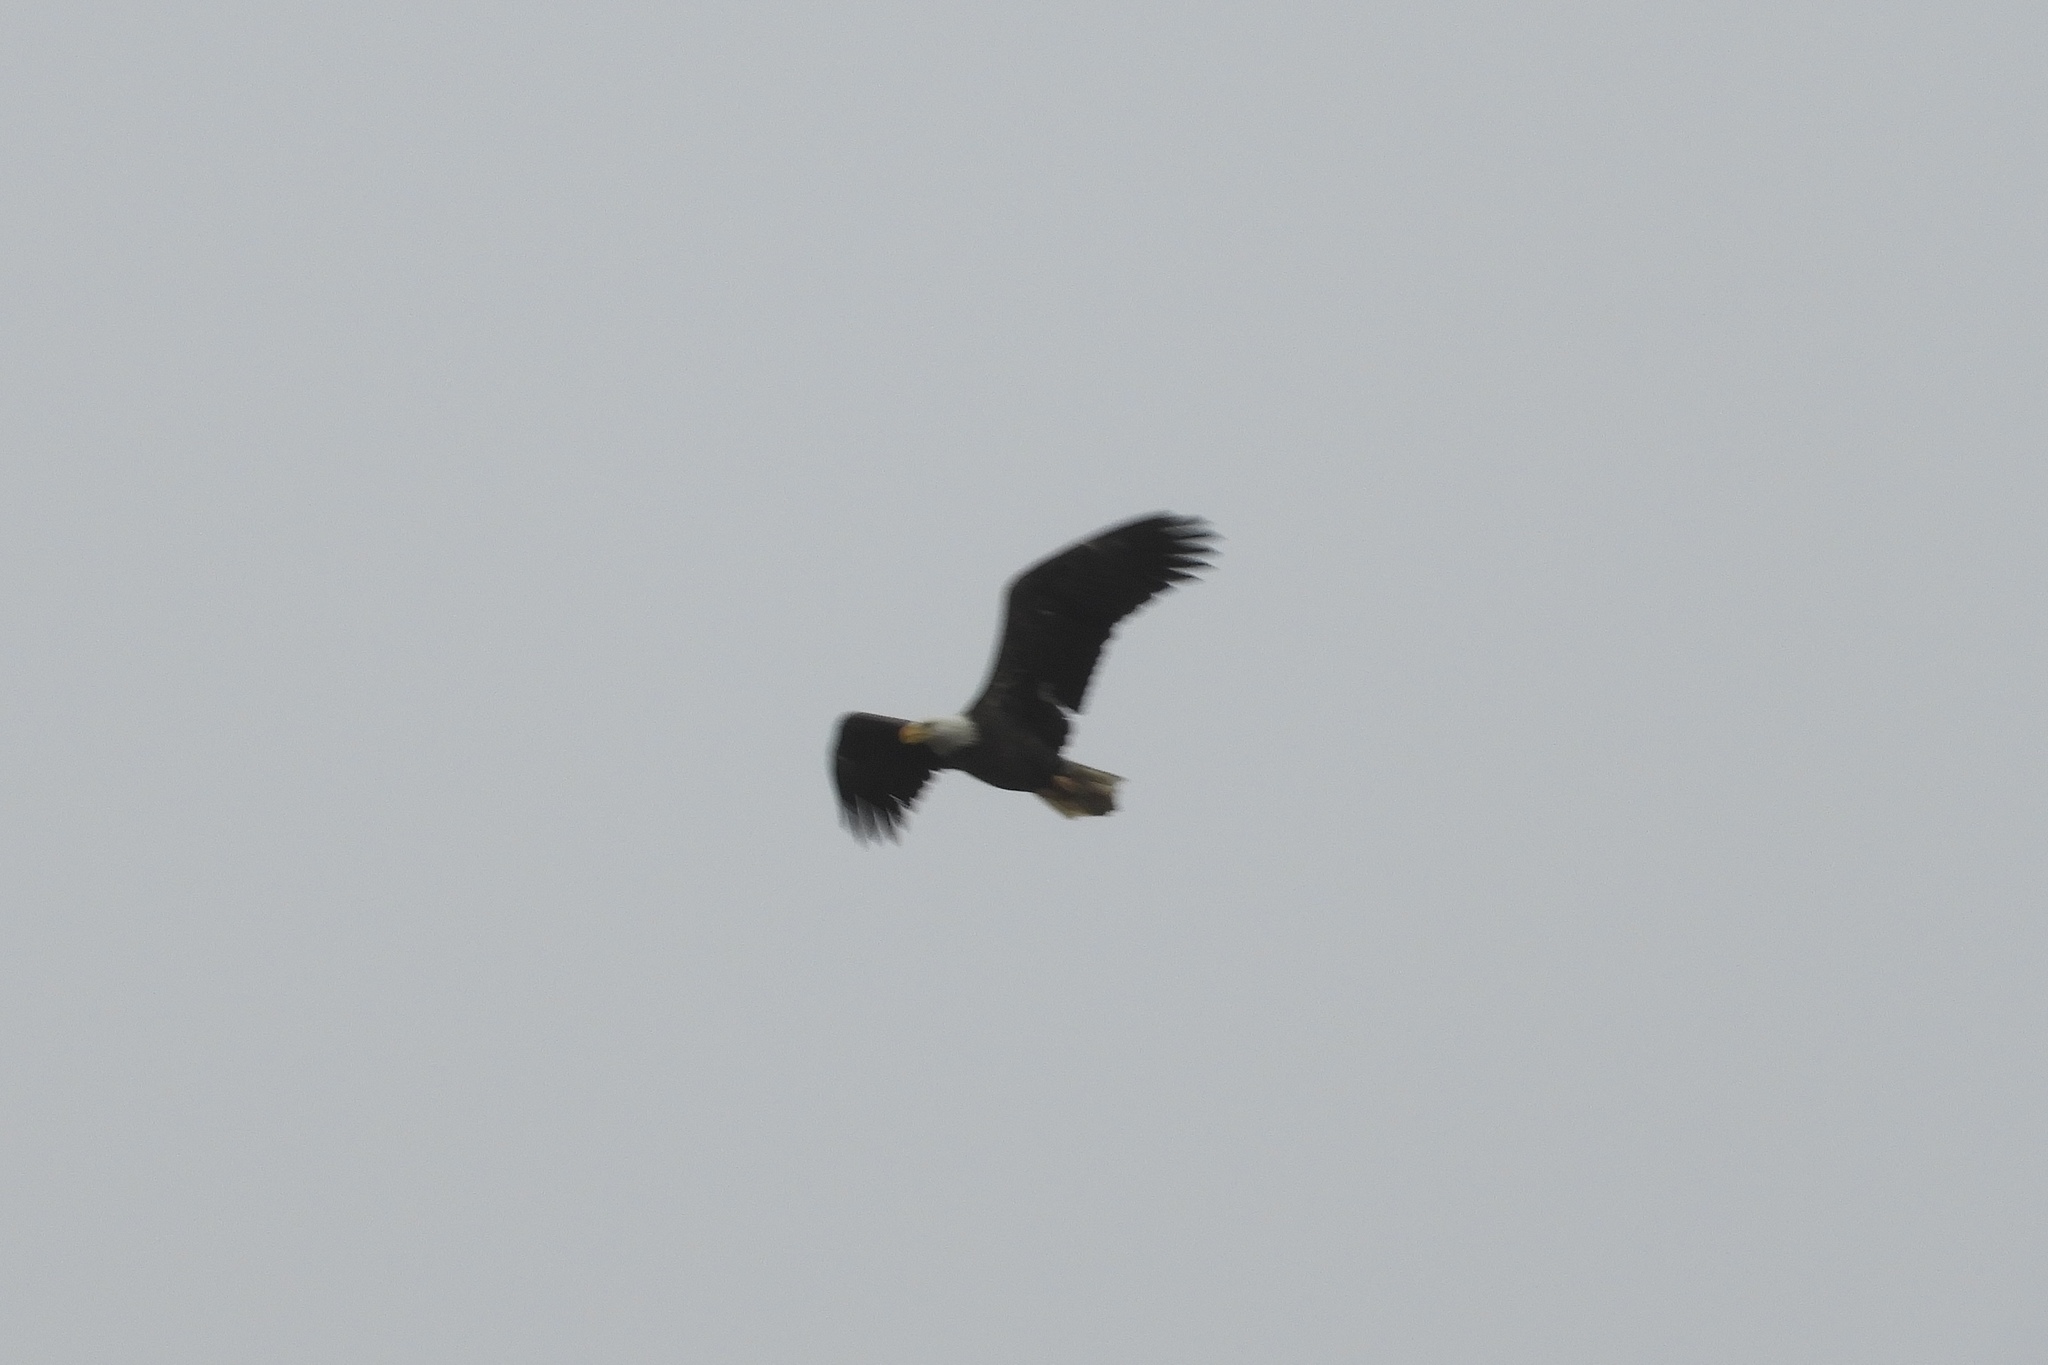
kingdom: Animalia
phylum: Chordata
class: Aves
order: Accipitriformes
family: Accipitridae
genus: Haliaeetus
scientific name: Haliaeetus leucocephalus
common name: Bald eagle
